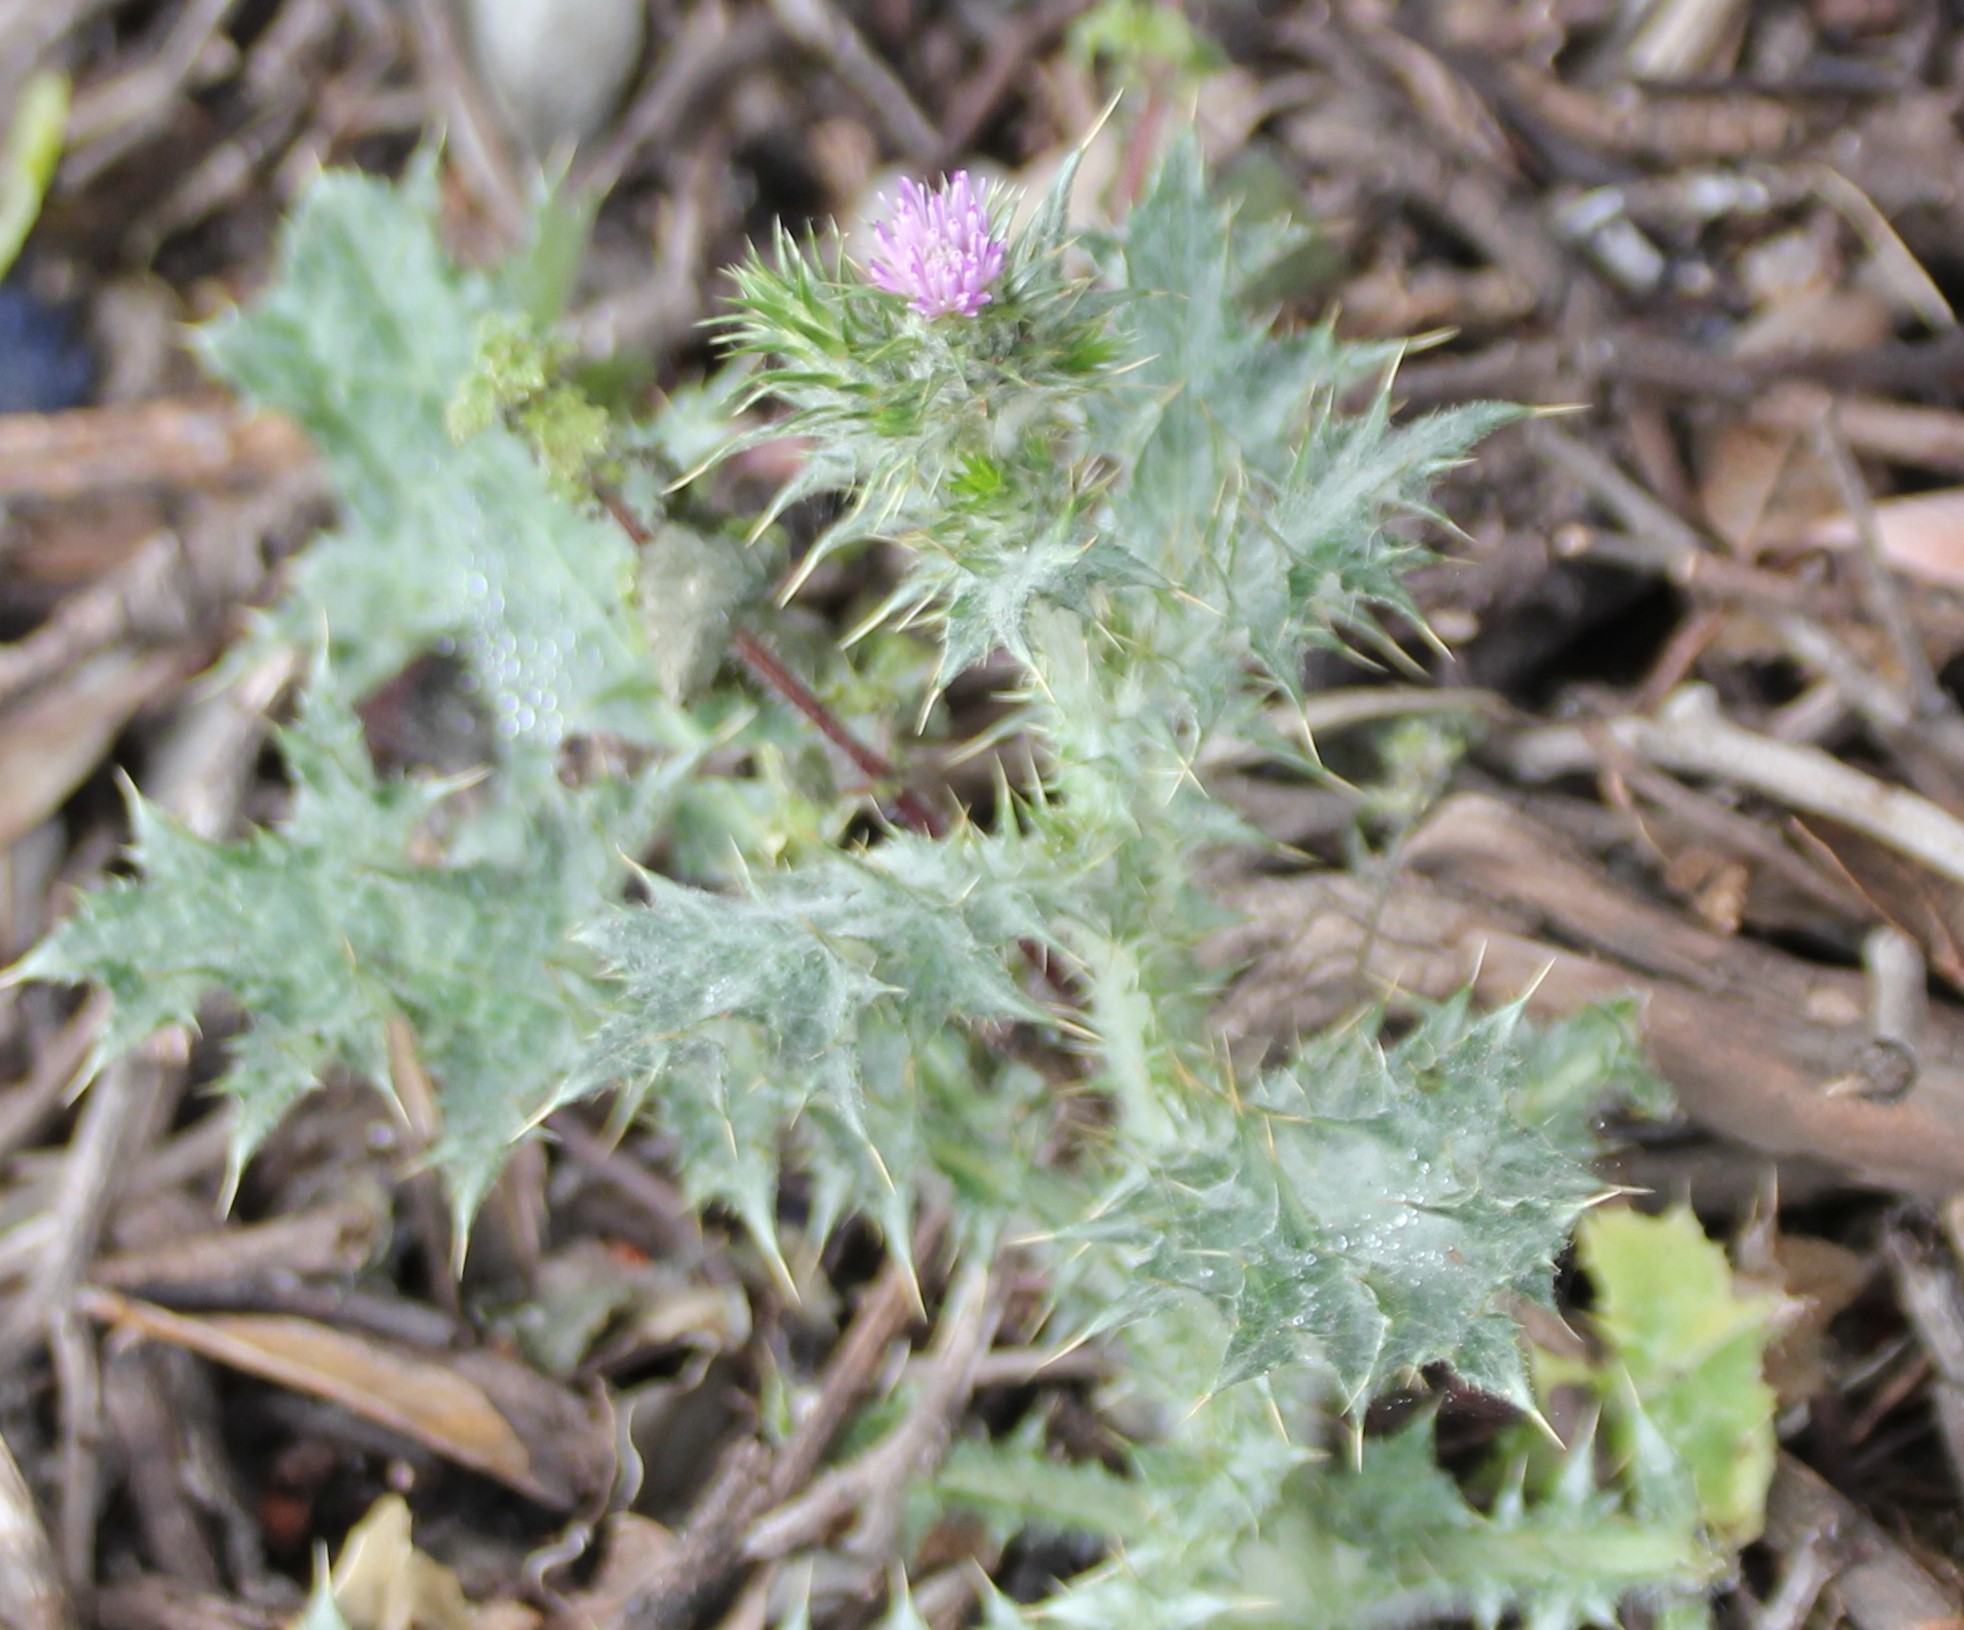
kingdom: Plantae
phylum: Tracheophyta
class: Magnoliopsida
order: Asterales
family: Asteraceae
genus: Carduus
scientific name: Carduus pycnocephalus
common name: Plymouth thistle
